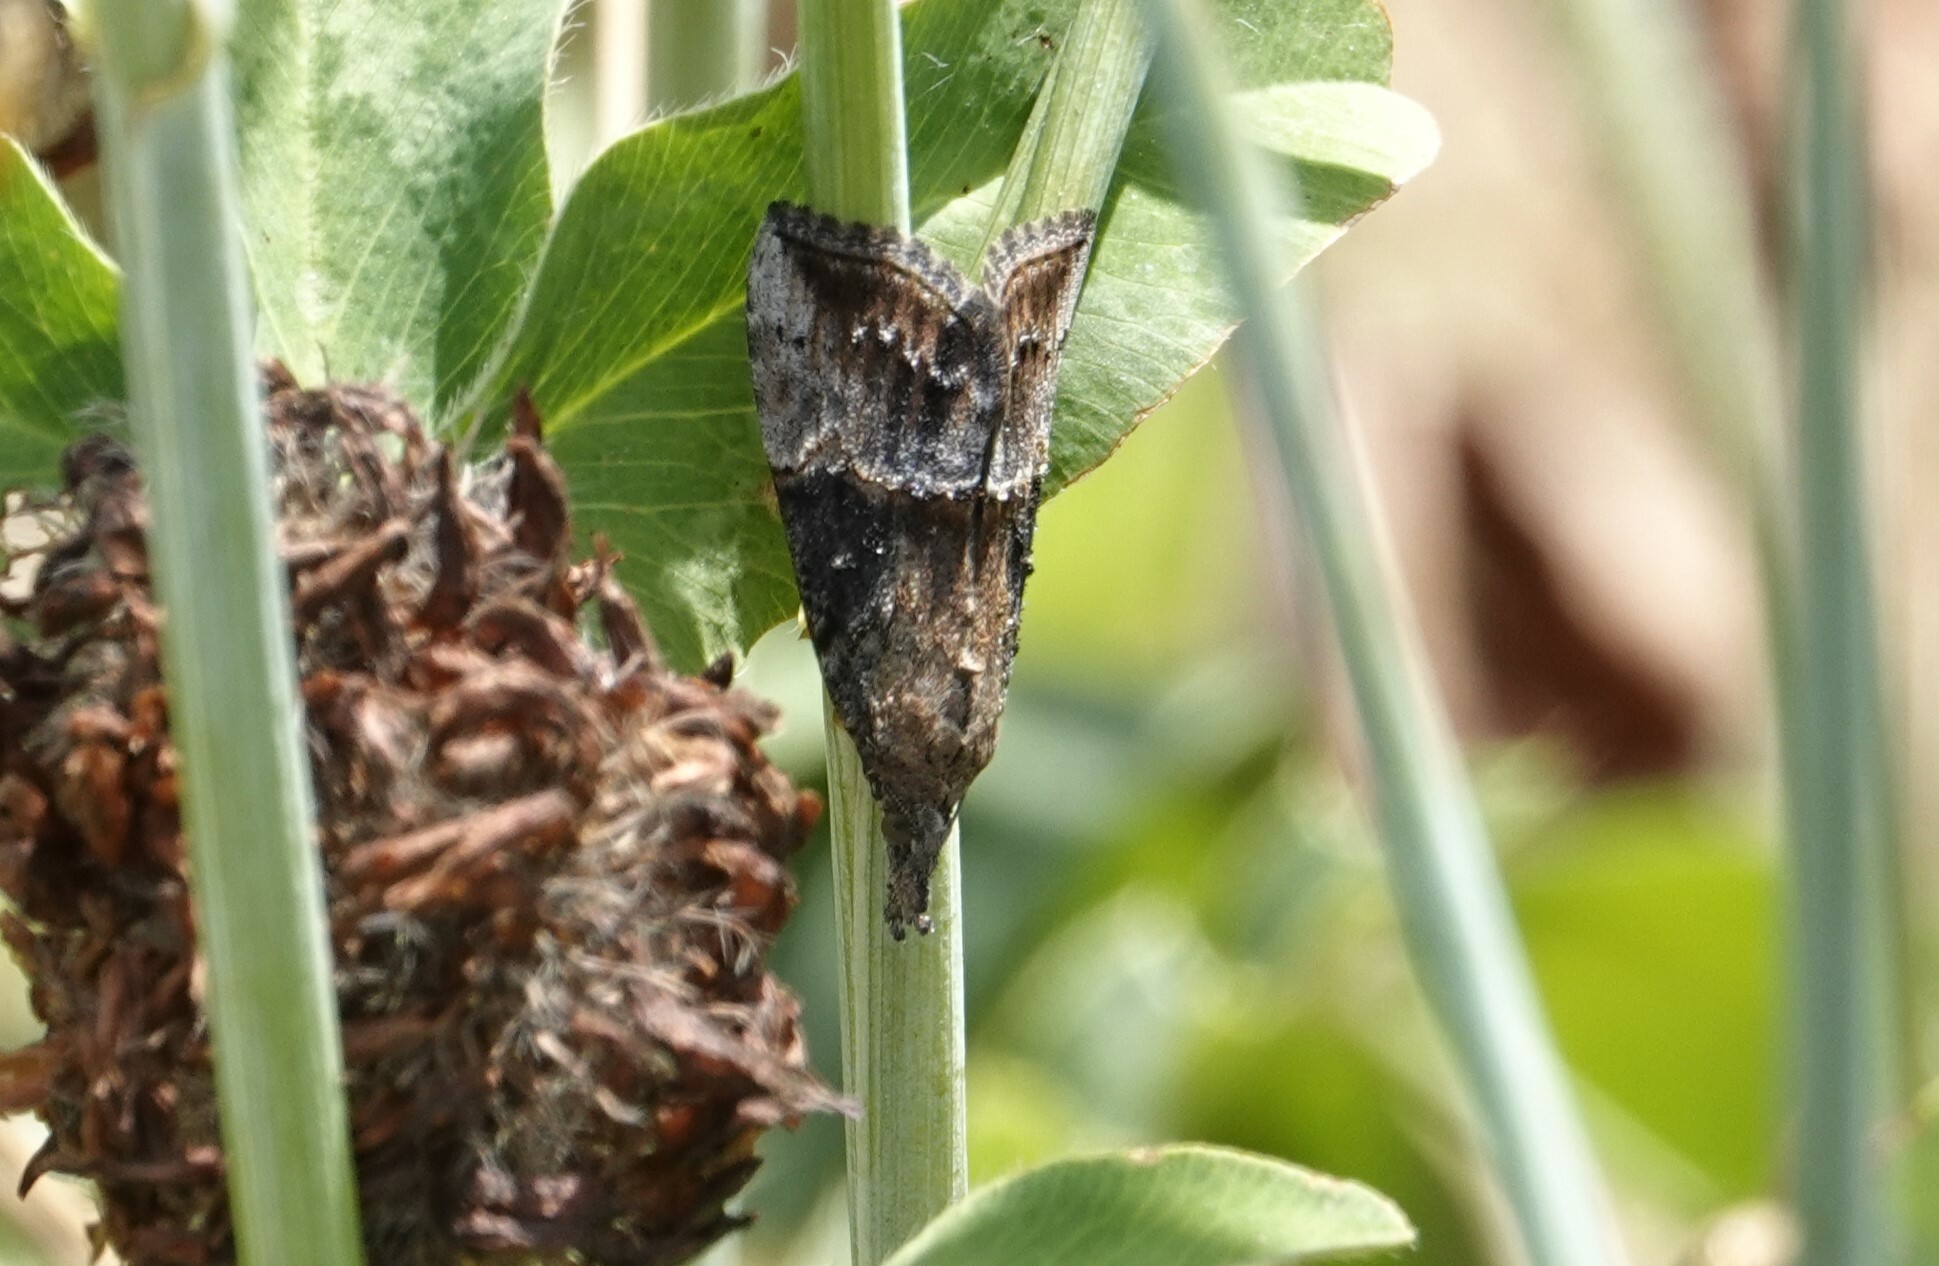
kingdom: Animalia
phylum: Arthropoda
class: Insecta
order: Lepidoptera
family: Erebidae
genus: Hypena
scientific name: Hypena scabra
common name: Green cloverworm
